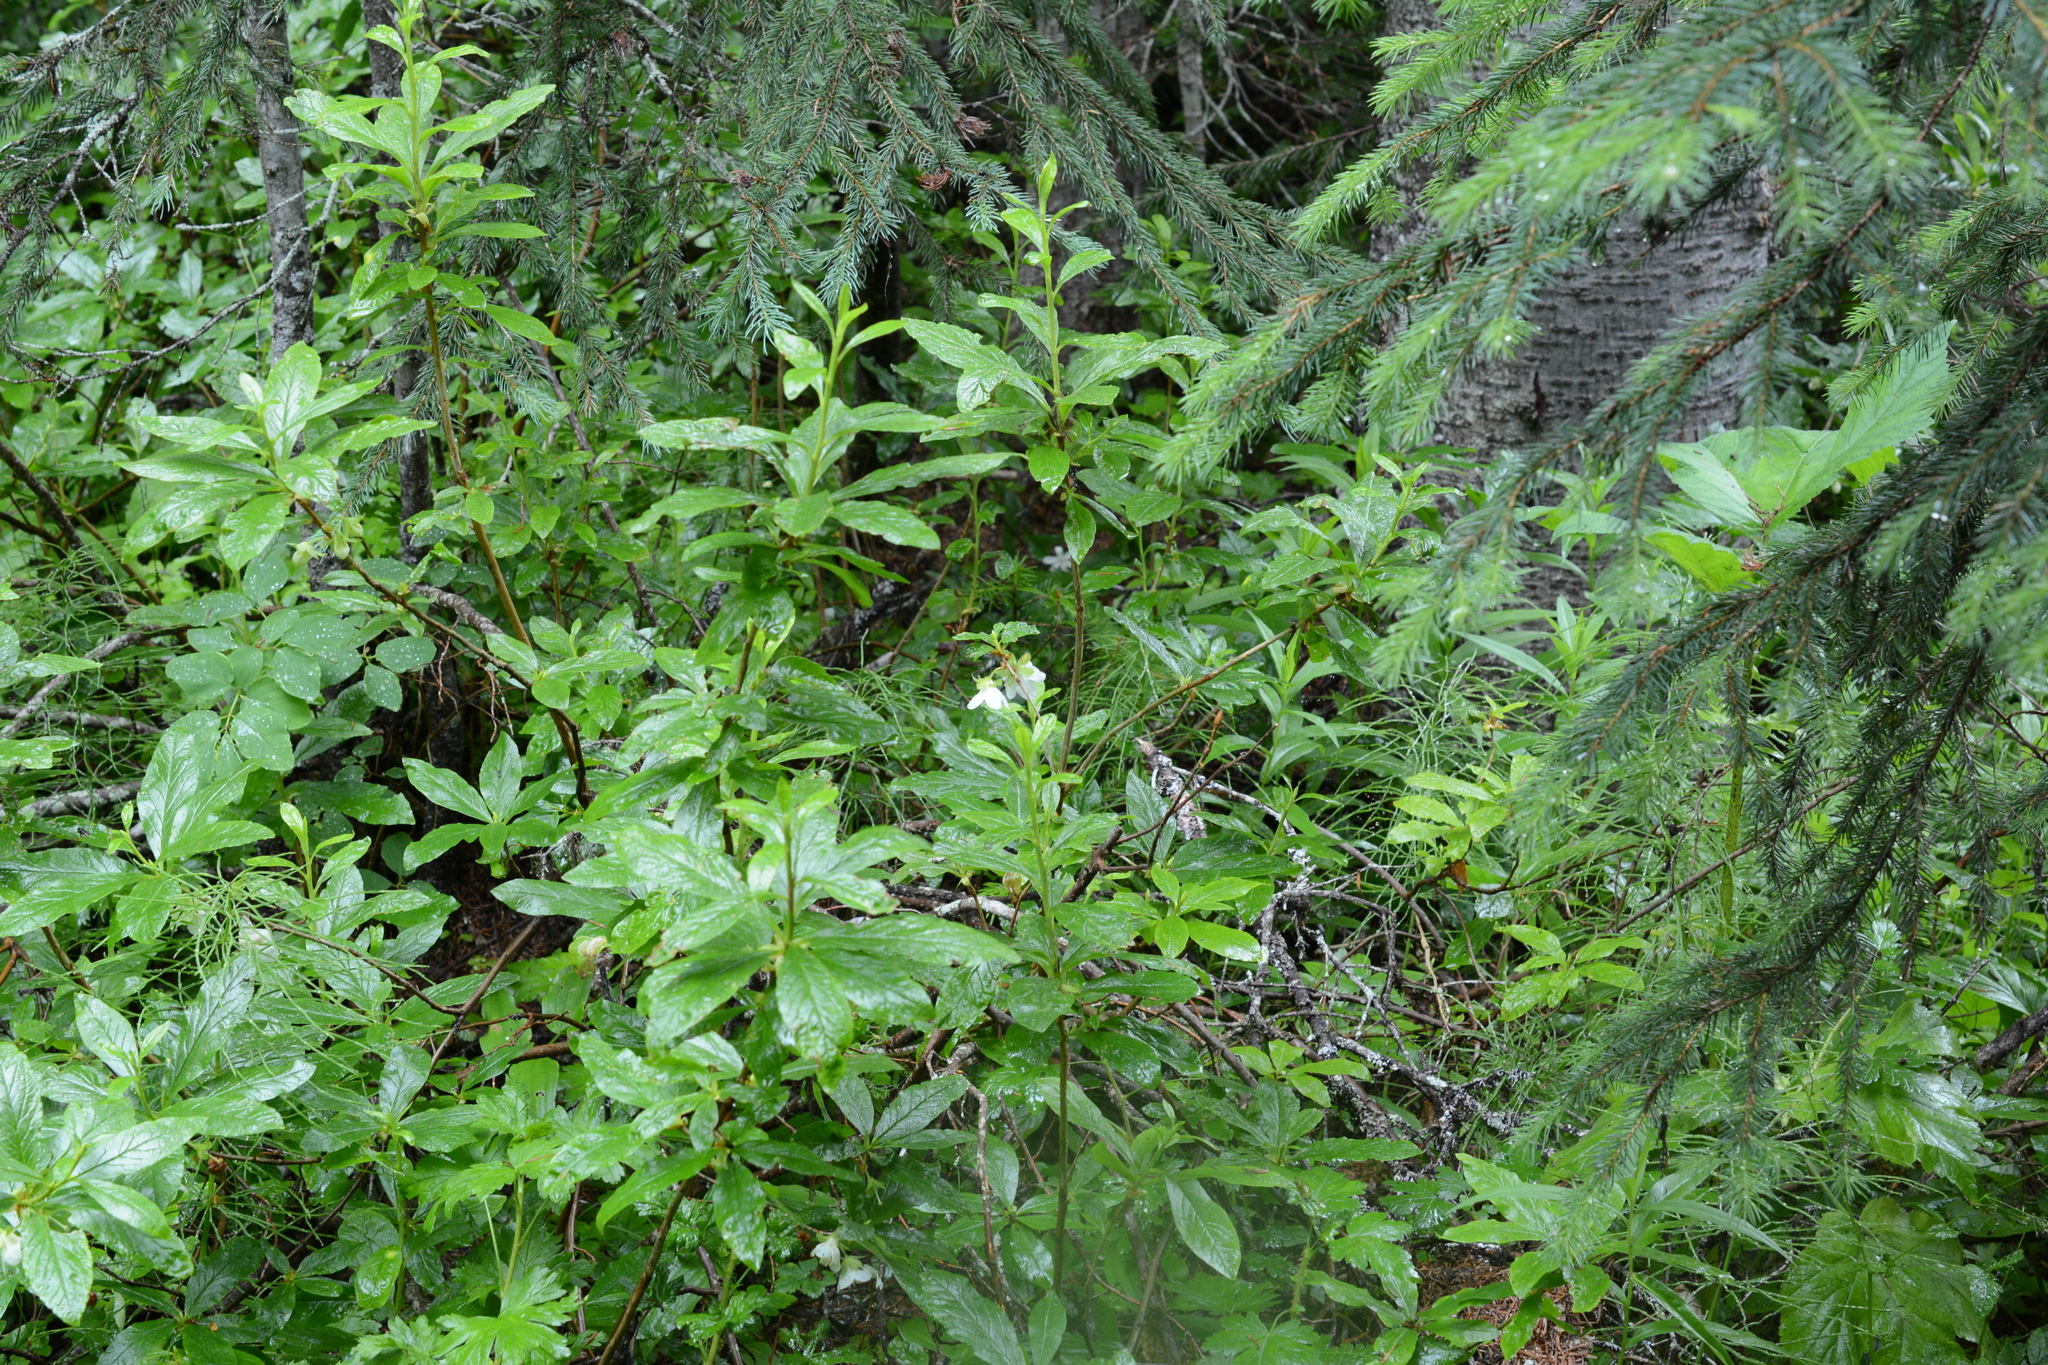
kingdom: Plantae
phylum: Tracheophyta
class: Magnoliopsida
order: Ericales
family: Ericaceae
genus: Rhododendron
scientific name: Rhododendron albiflorum
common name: White rhododendron
